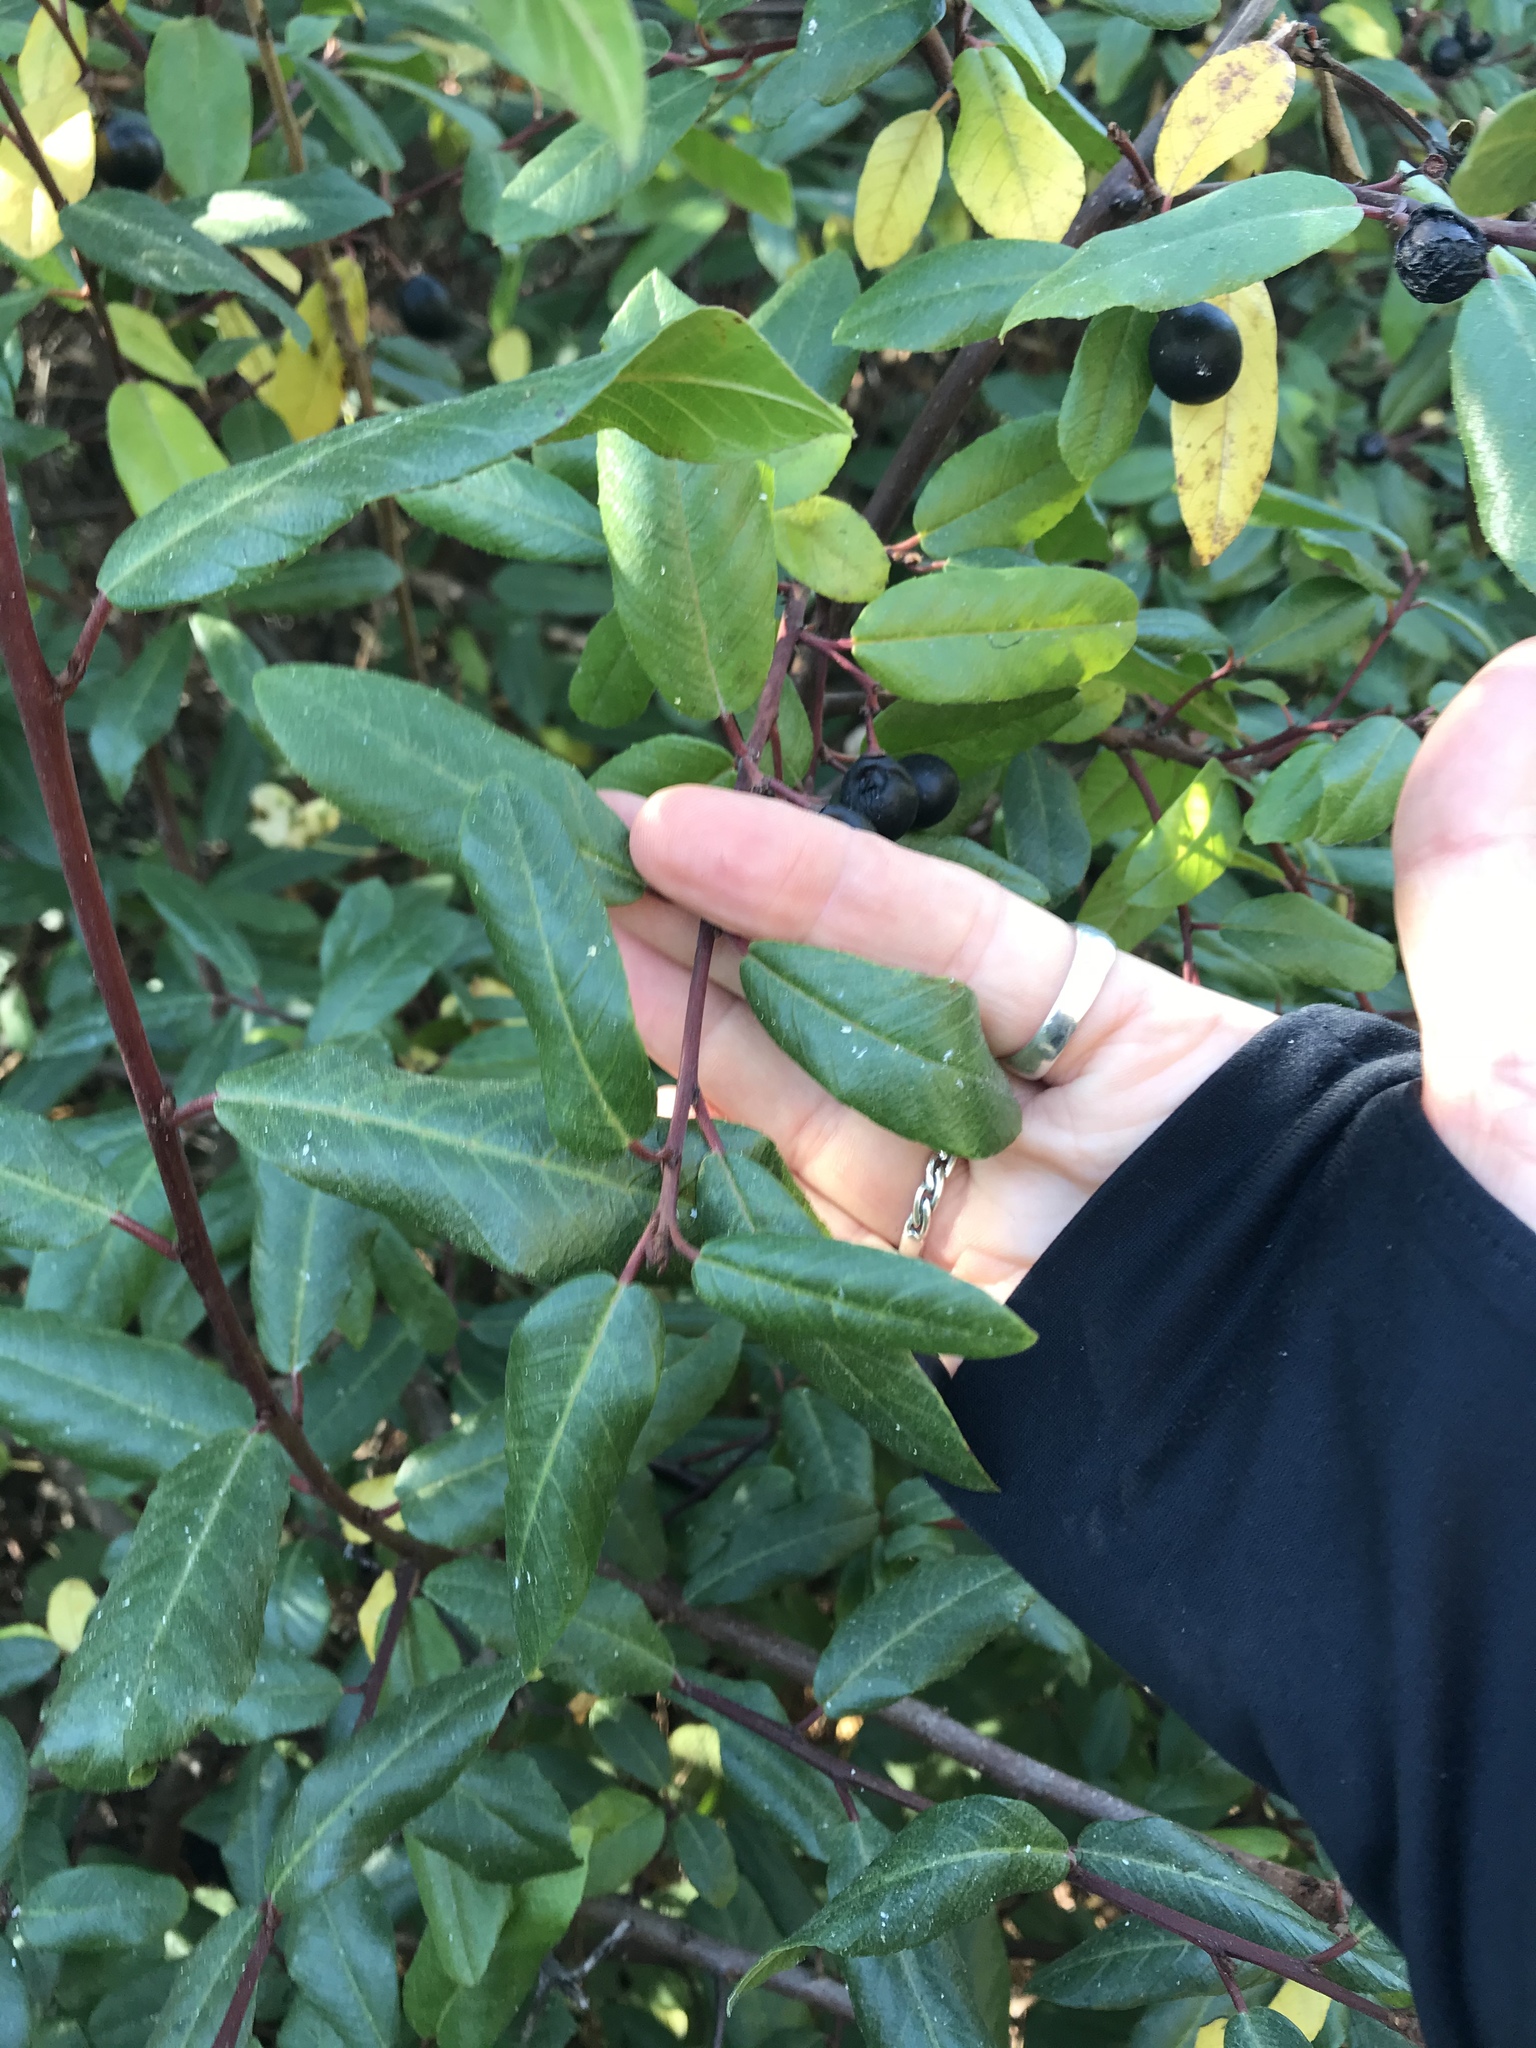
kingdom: Plantae
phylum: Tracheophyta
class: Magnoliopsida
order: Rosales
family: Rhamnaceae
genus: Frangula
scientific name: Frangula californica
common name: California buckthorn
